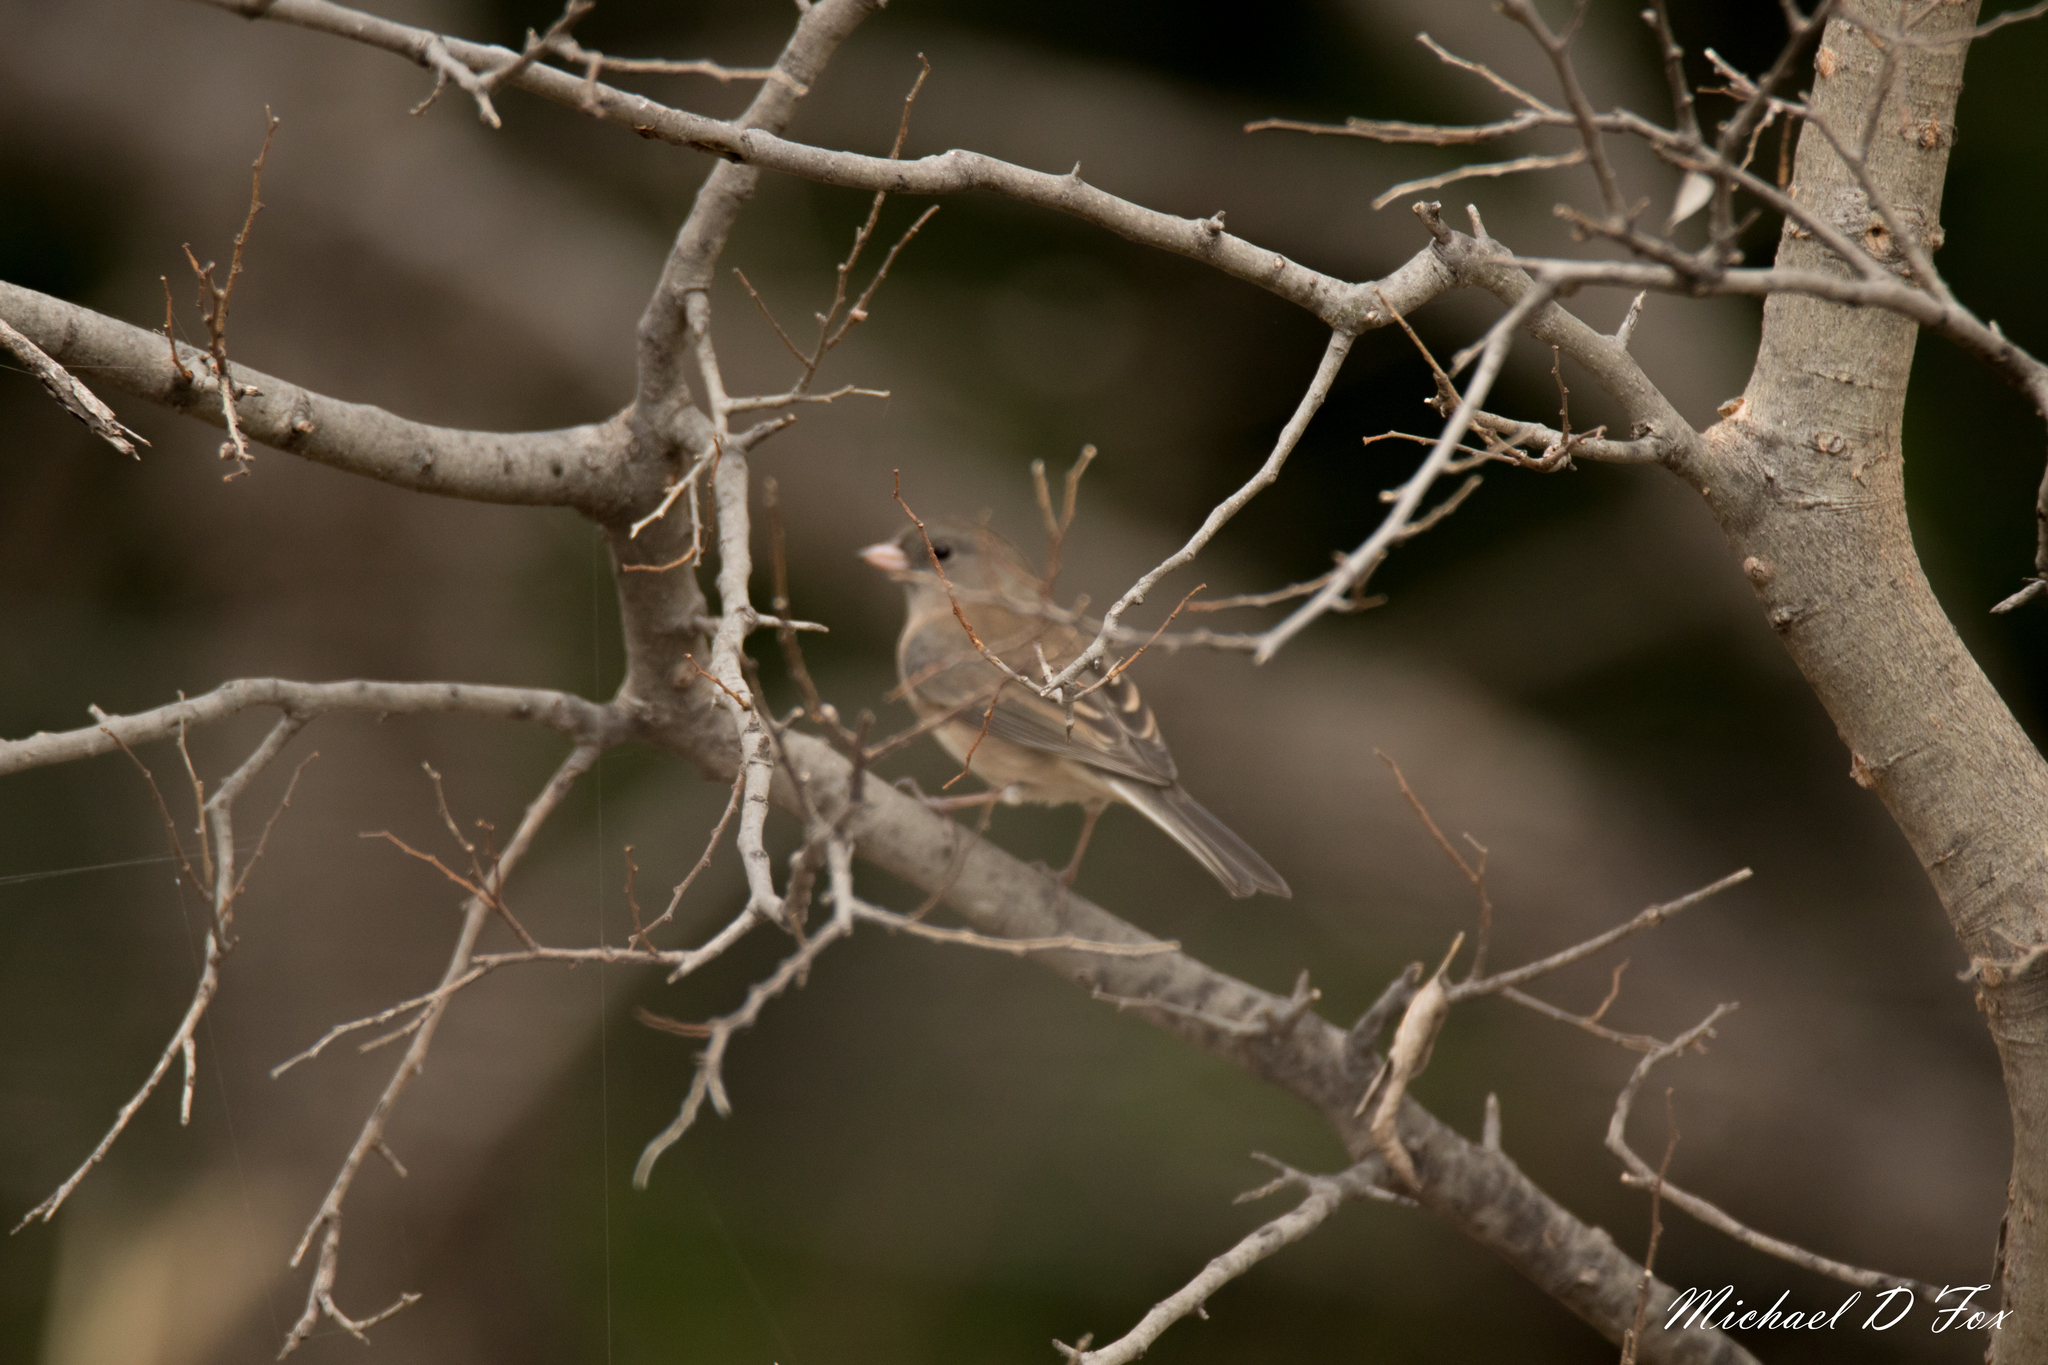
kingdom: Animalia
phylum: Chordata
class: Aves
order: Passeriformes
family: Passerellidae
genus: Junco
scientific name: Junco hyemalis
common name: Dark-eyed junco
